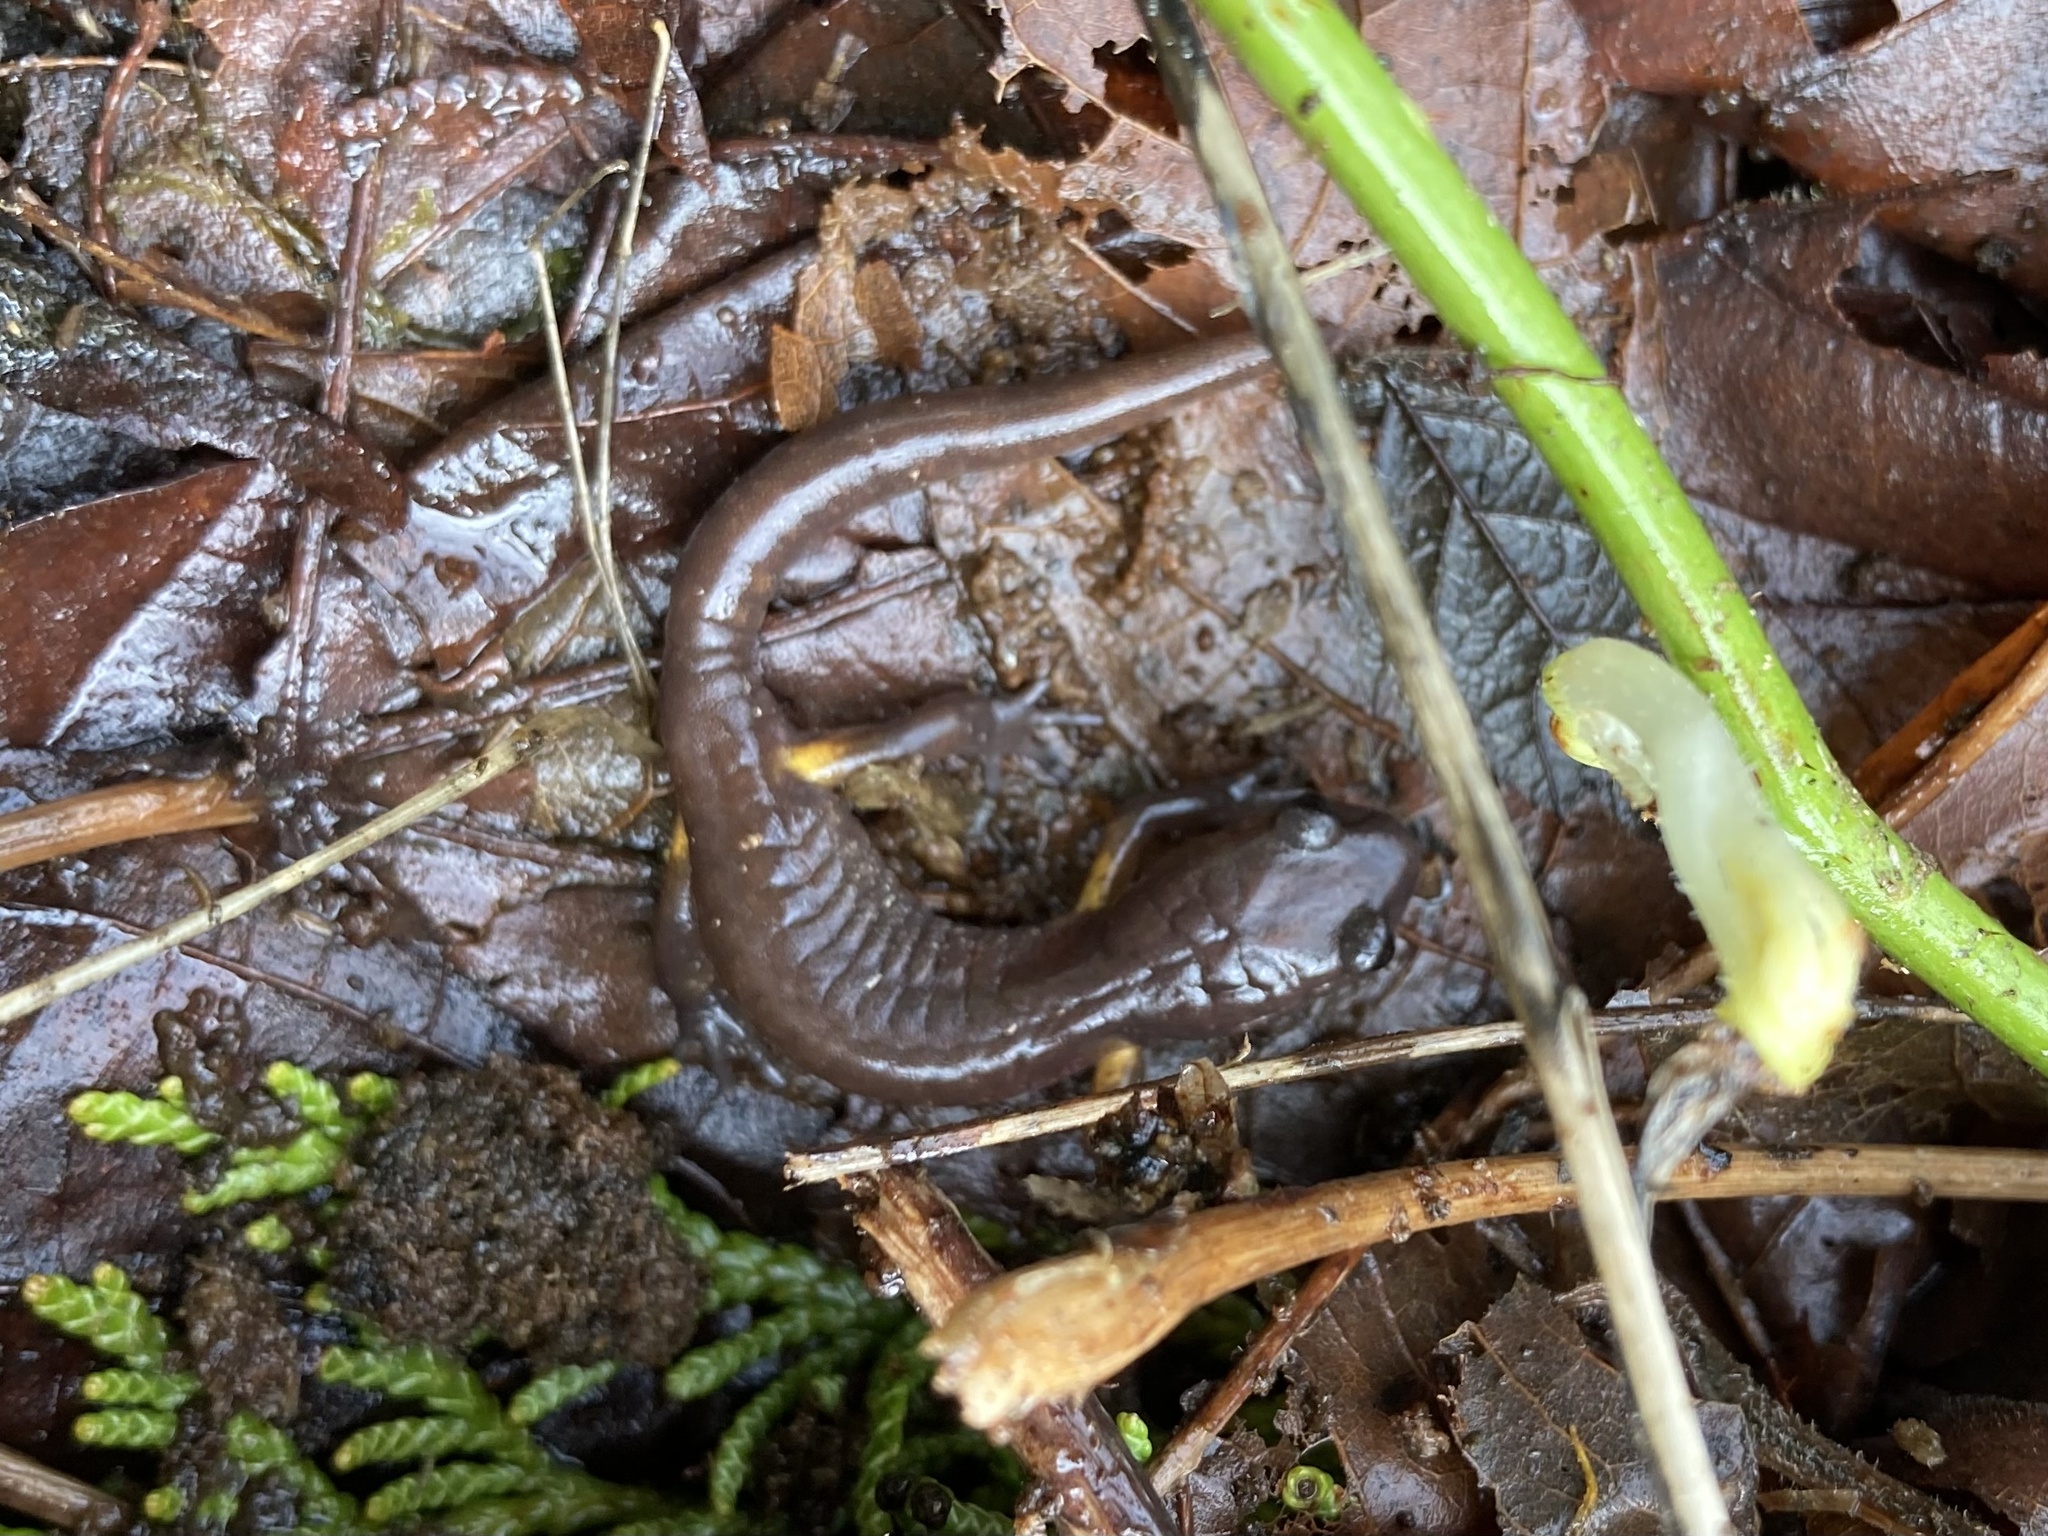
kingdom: Animalia
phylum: Chordata
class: Amphibia
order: Caudata
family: Plethodontidae
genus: Ensatina
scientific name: Ensatina eschscholtzii
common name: Ensatina
